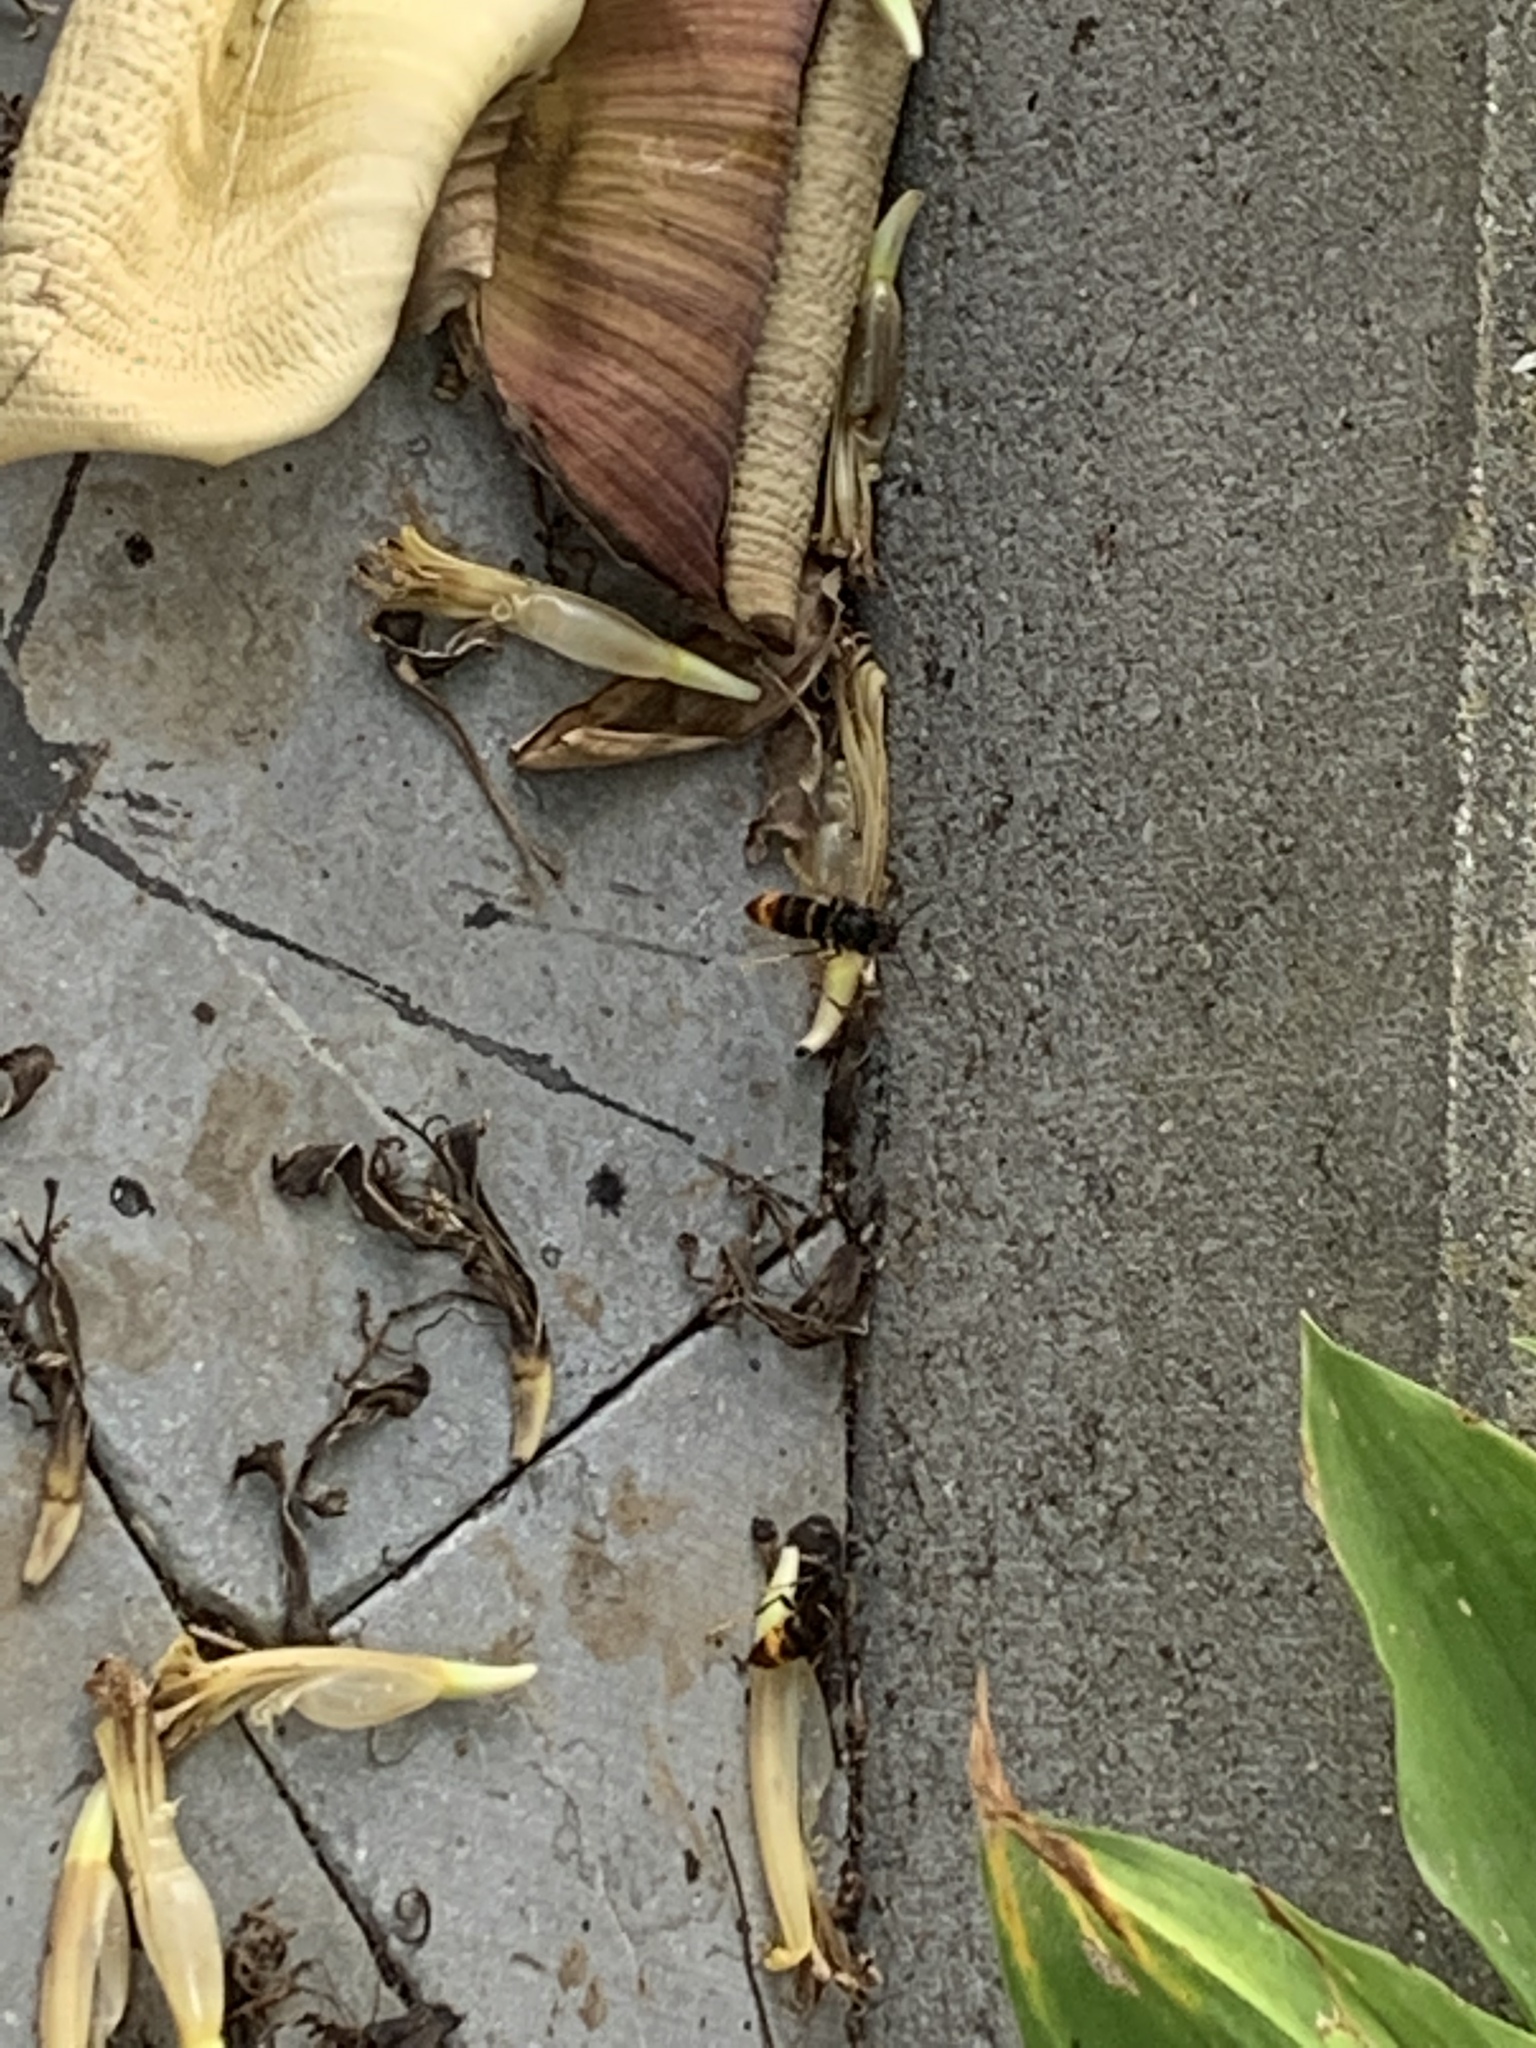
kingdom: Animalia
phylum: Arthropoda
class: Insecta
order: Hymenoptera
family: Vespidae
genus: Vespa
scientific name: Vespa velutina
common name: Asian hornet
